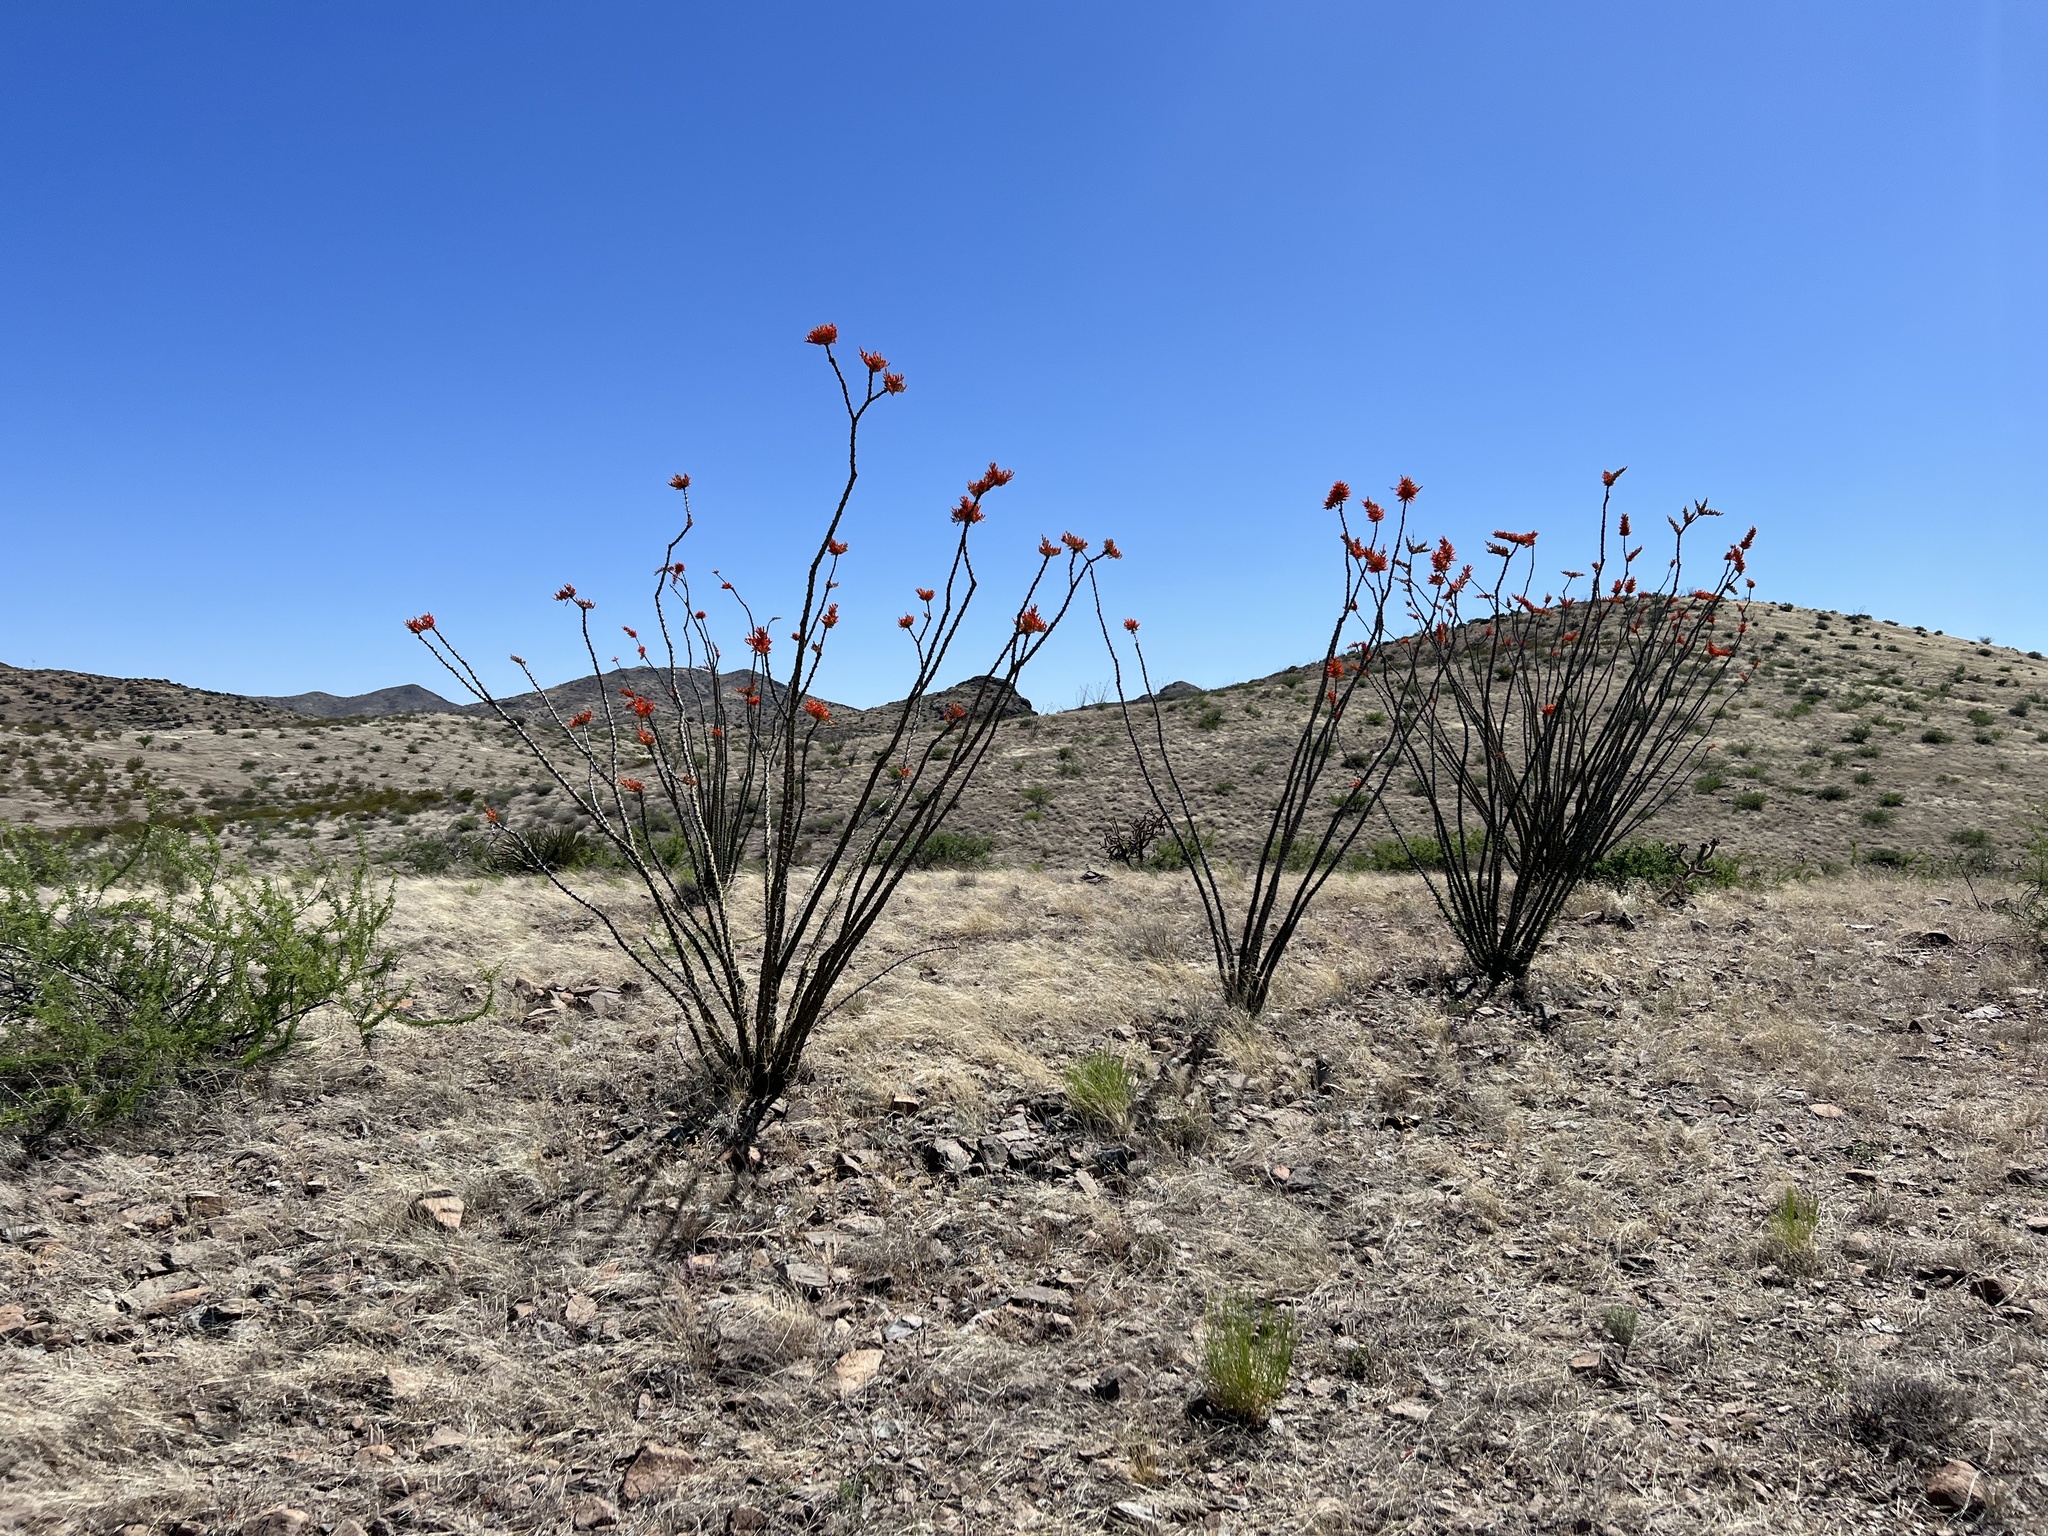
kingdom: Plantae
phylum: Tracheophyta
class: Magnoliopsida
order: Ericales
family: Fouquieriaceae
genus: Fouquieria
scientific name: Fouquieria splendens
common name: Vine-cactus
